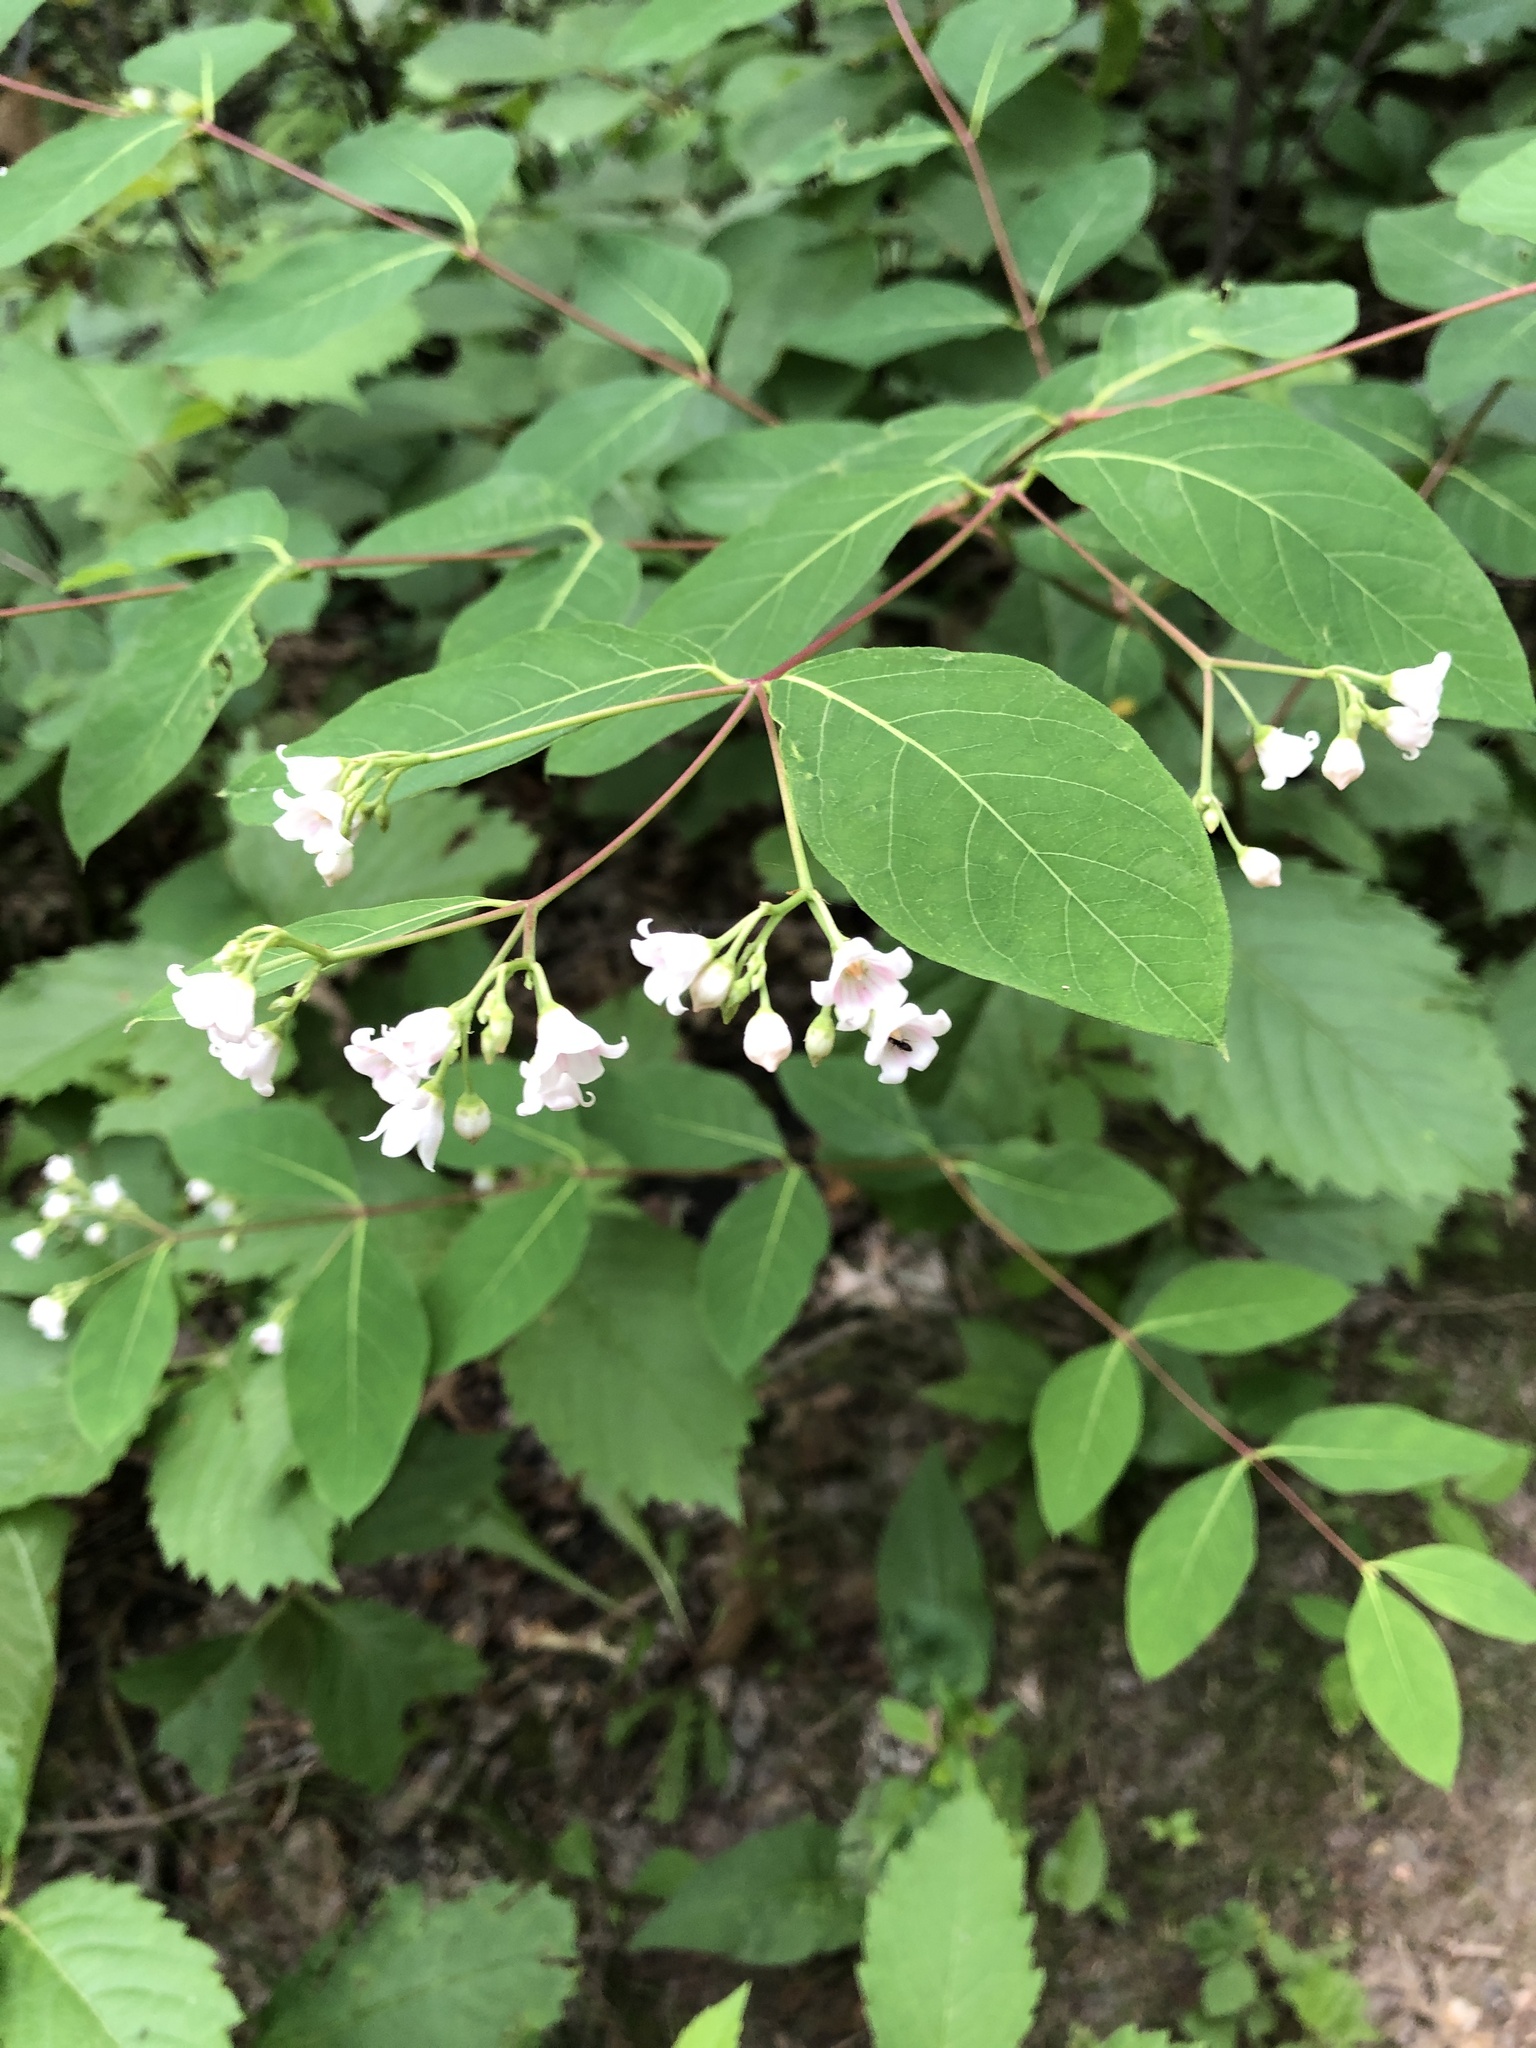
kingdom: Plantae
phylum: Tracheophyta
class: Magnoliopsida
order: Gentianales
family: Apocynaceae
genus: Apocynum
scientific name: Apocynum androsaemifolium
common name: Spreading dogbane
